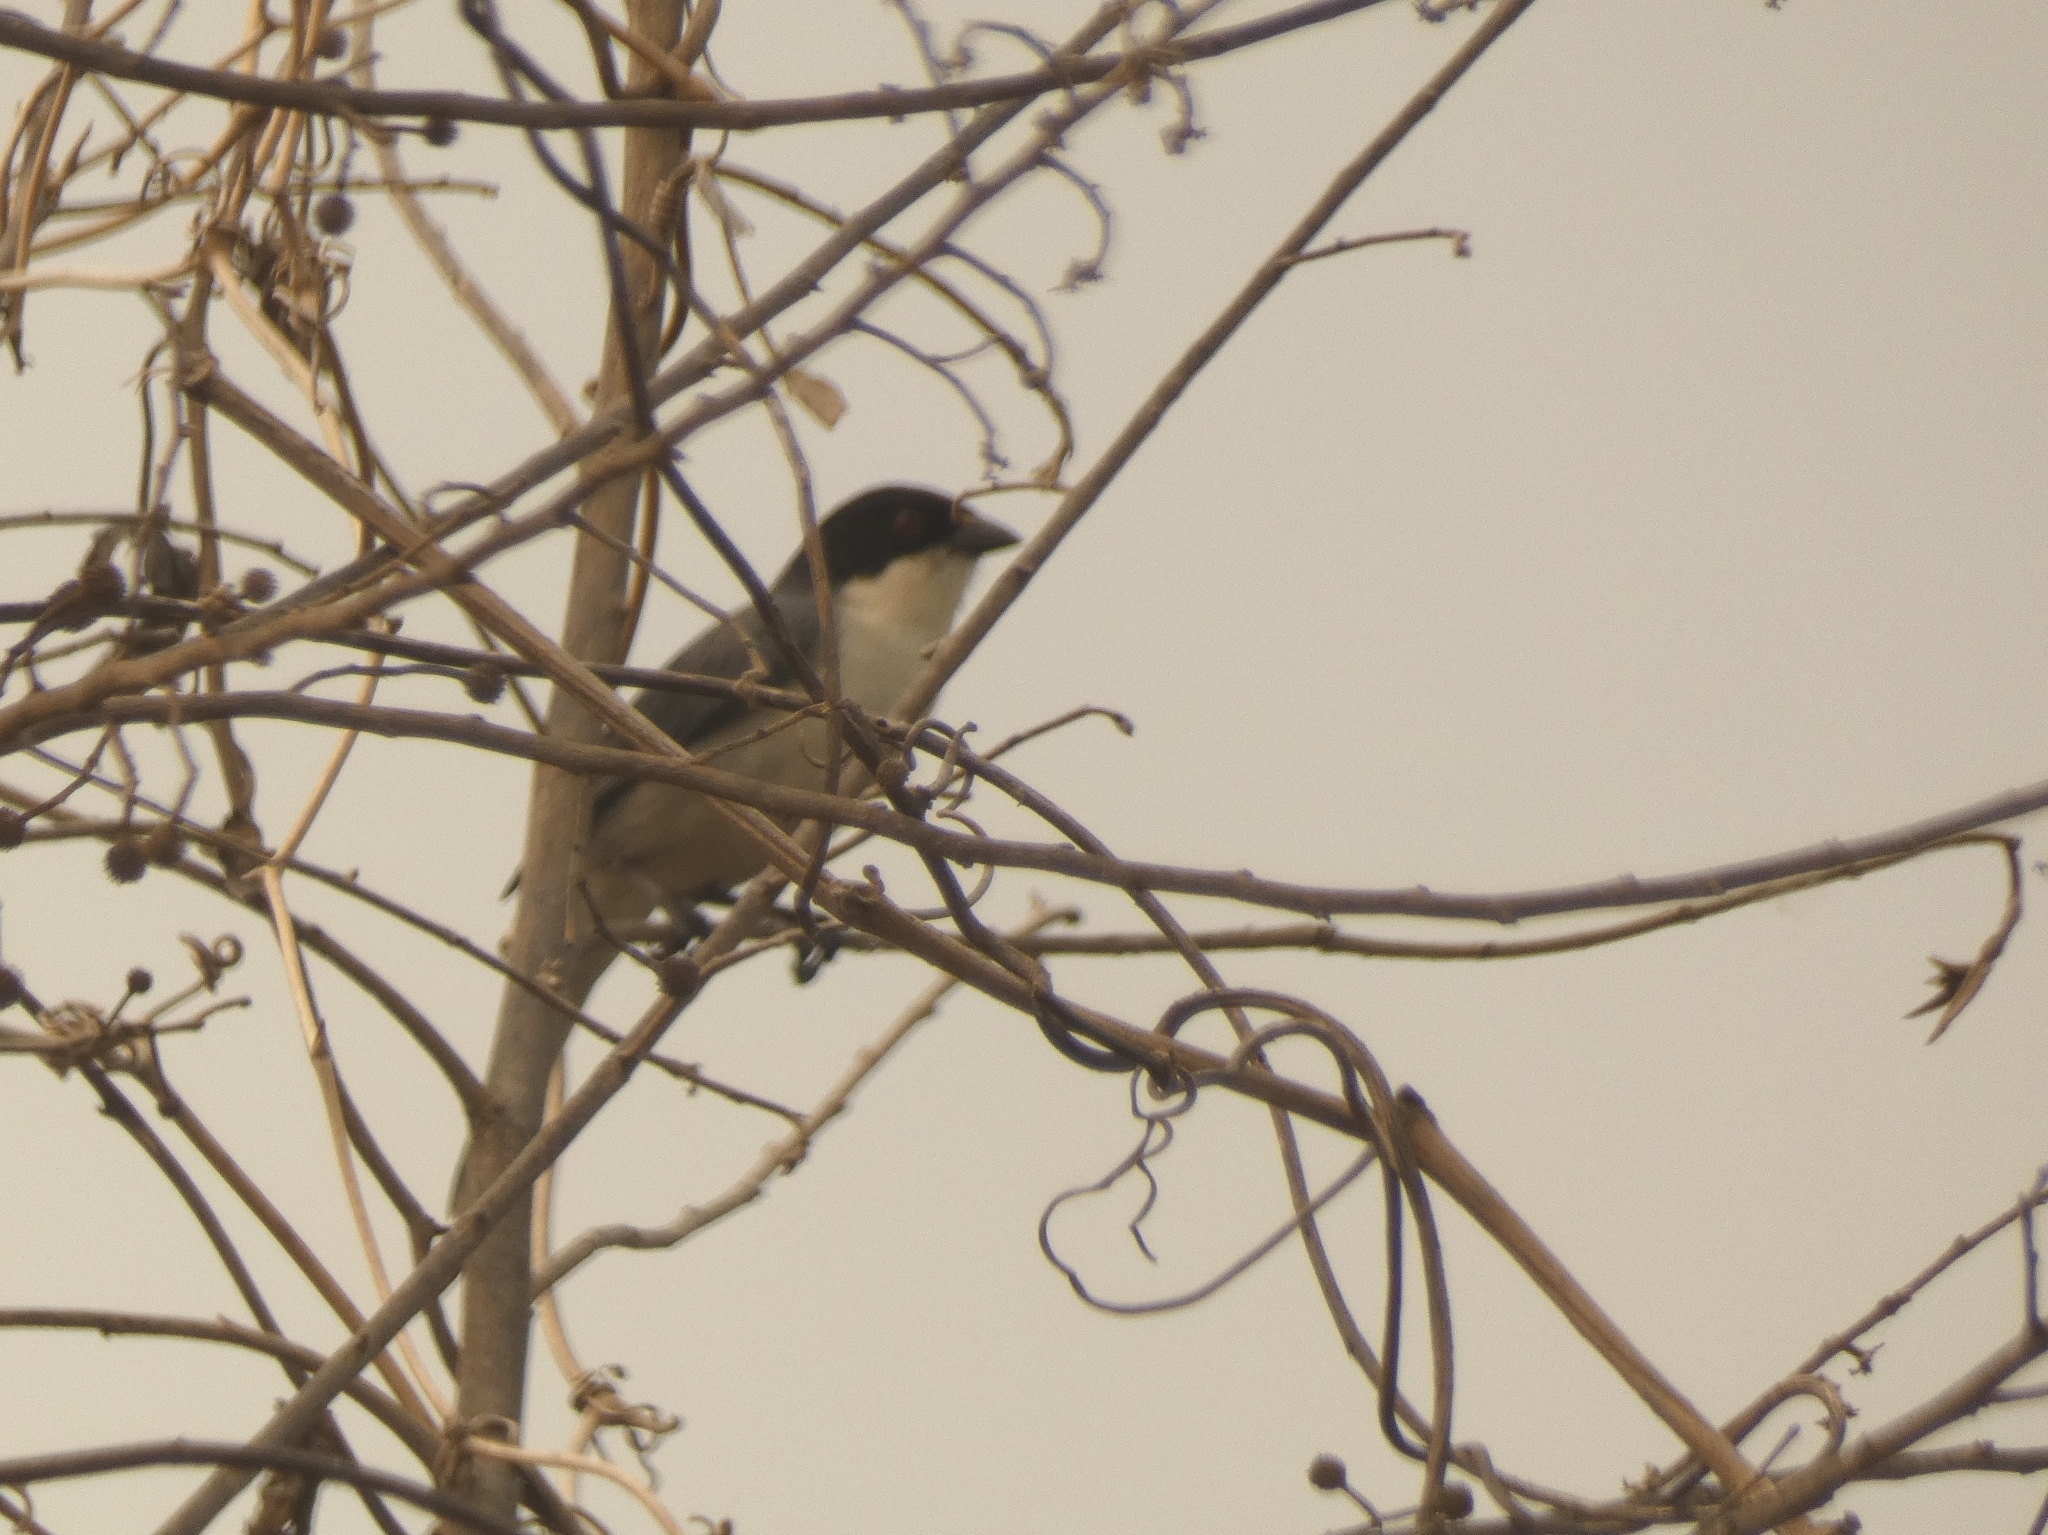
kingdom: Animalia
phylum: Chordata
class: Aves
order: Passeriformes
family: Thraupidae
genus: Microspingus
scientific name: Microspingus melanoleucus
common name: Black-capped warbling-finch
